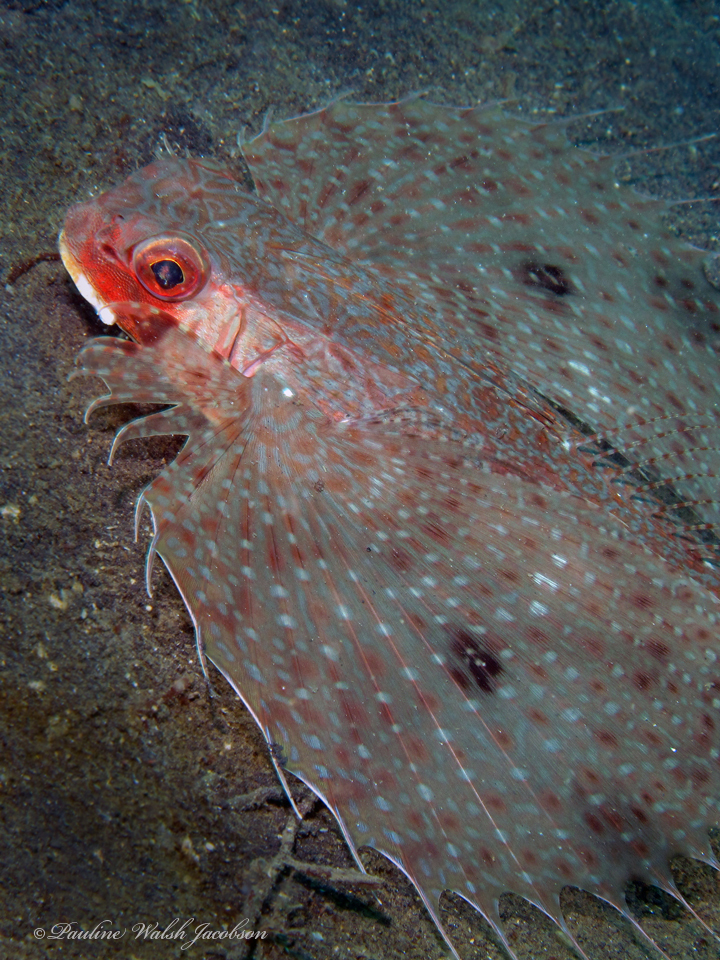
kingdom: Animalia
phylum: Chordata
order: Scorpaeniformes
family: Dactylopteridae
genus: Dactyloptena
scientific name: Dactyloptena orientalis
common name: Flying gurnard
